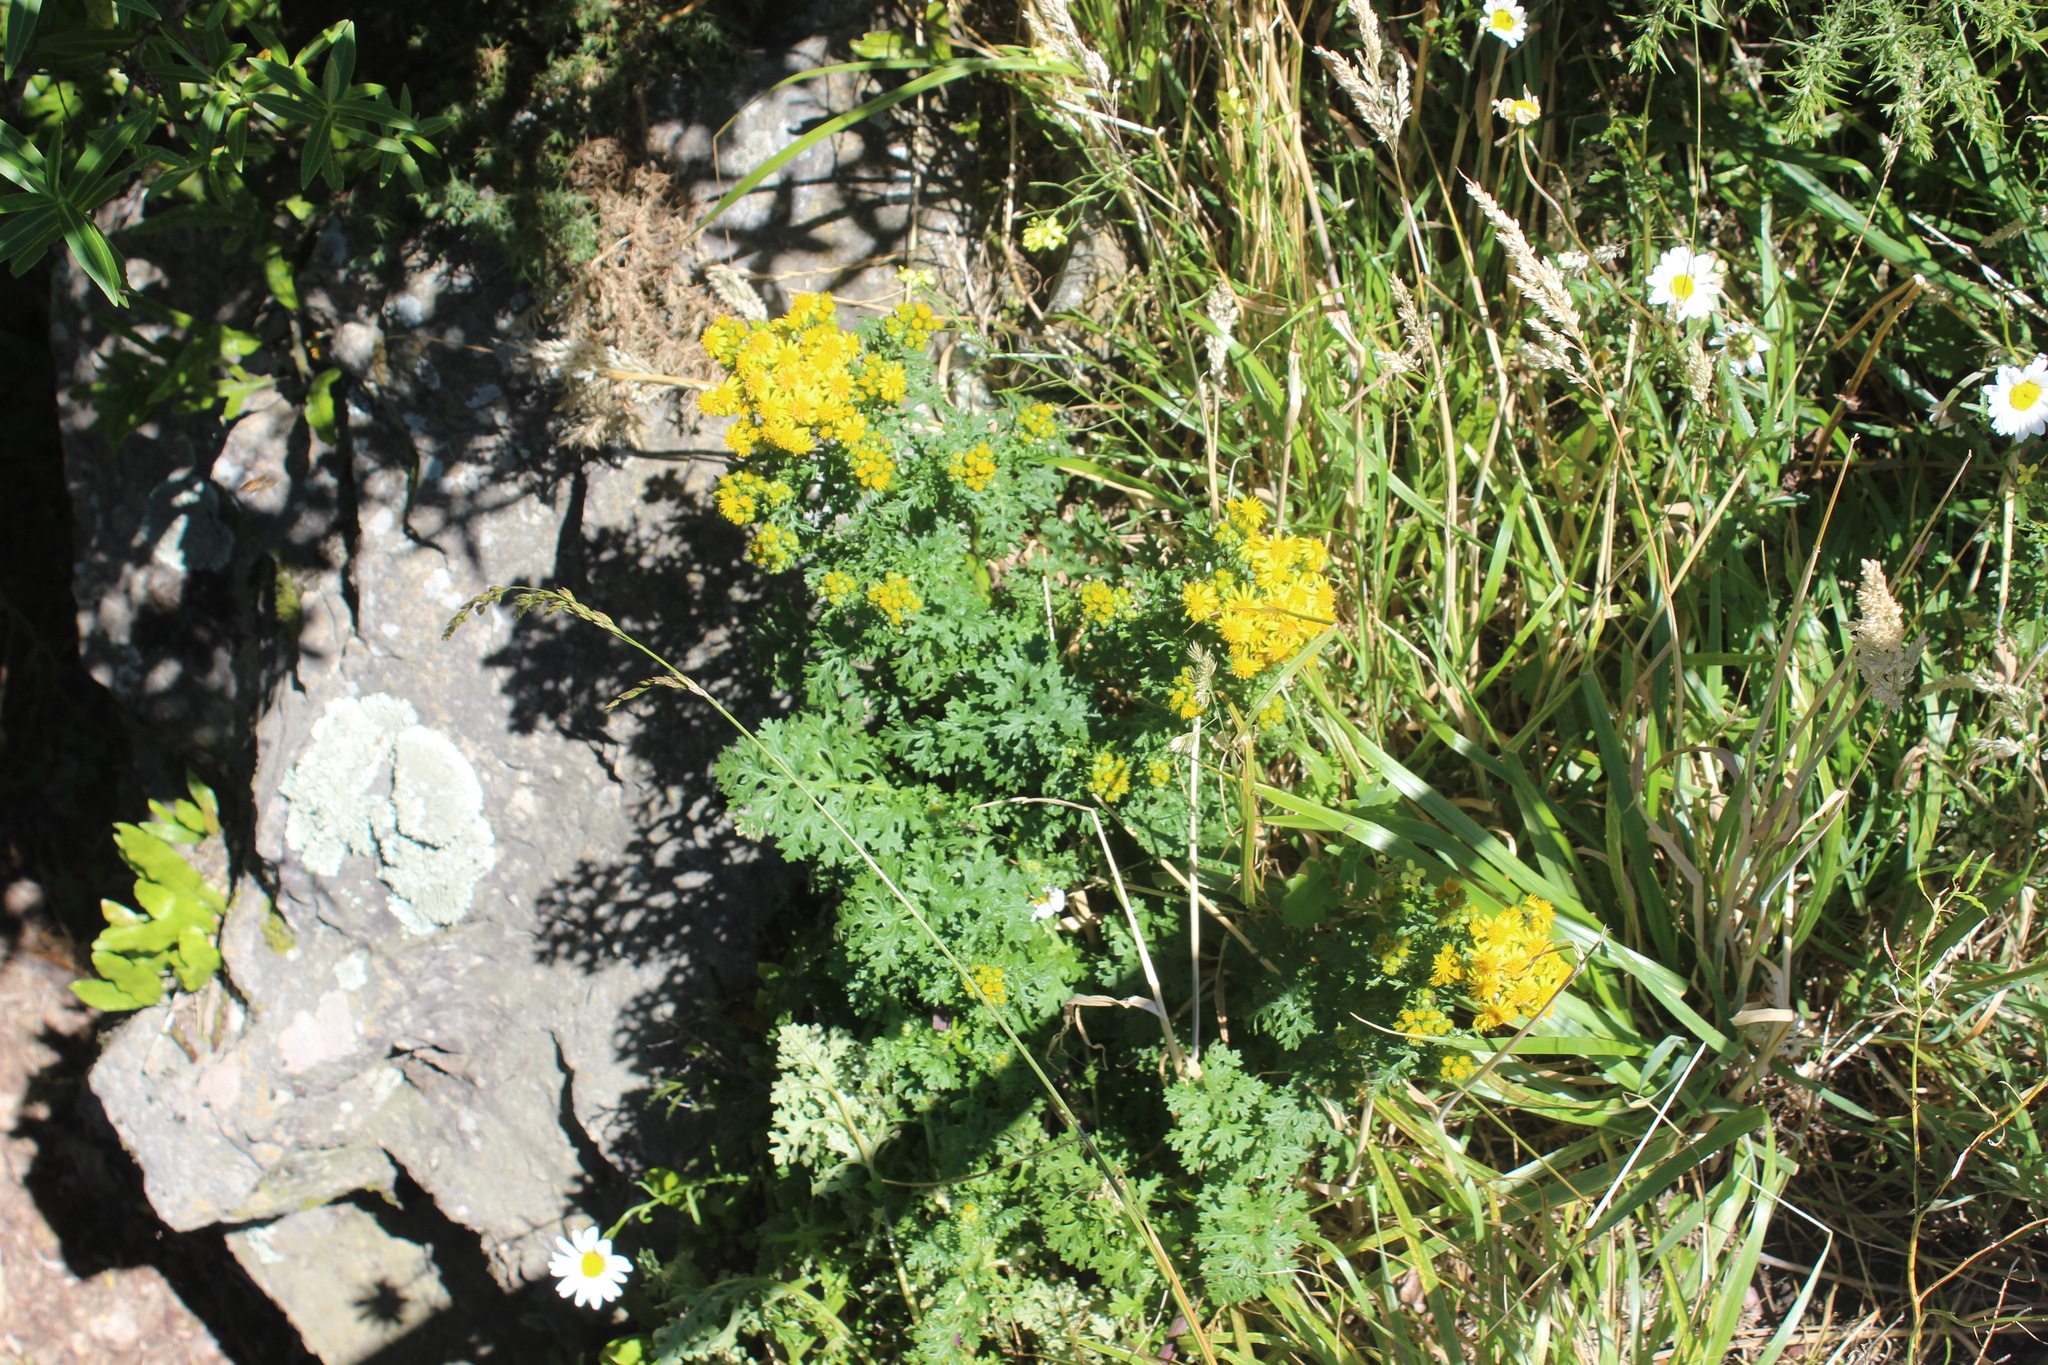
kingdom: Plantae
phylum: Tracheophyta
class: Magnoliopsida
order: Asterales
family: Asteraceae
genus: Jacobaea
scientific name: Jacobaea vulgaris
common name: Stinking willie
